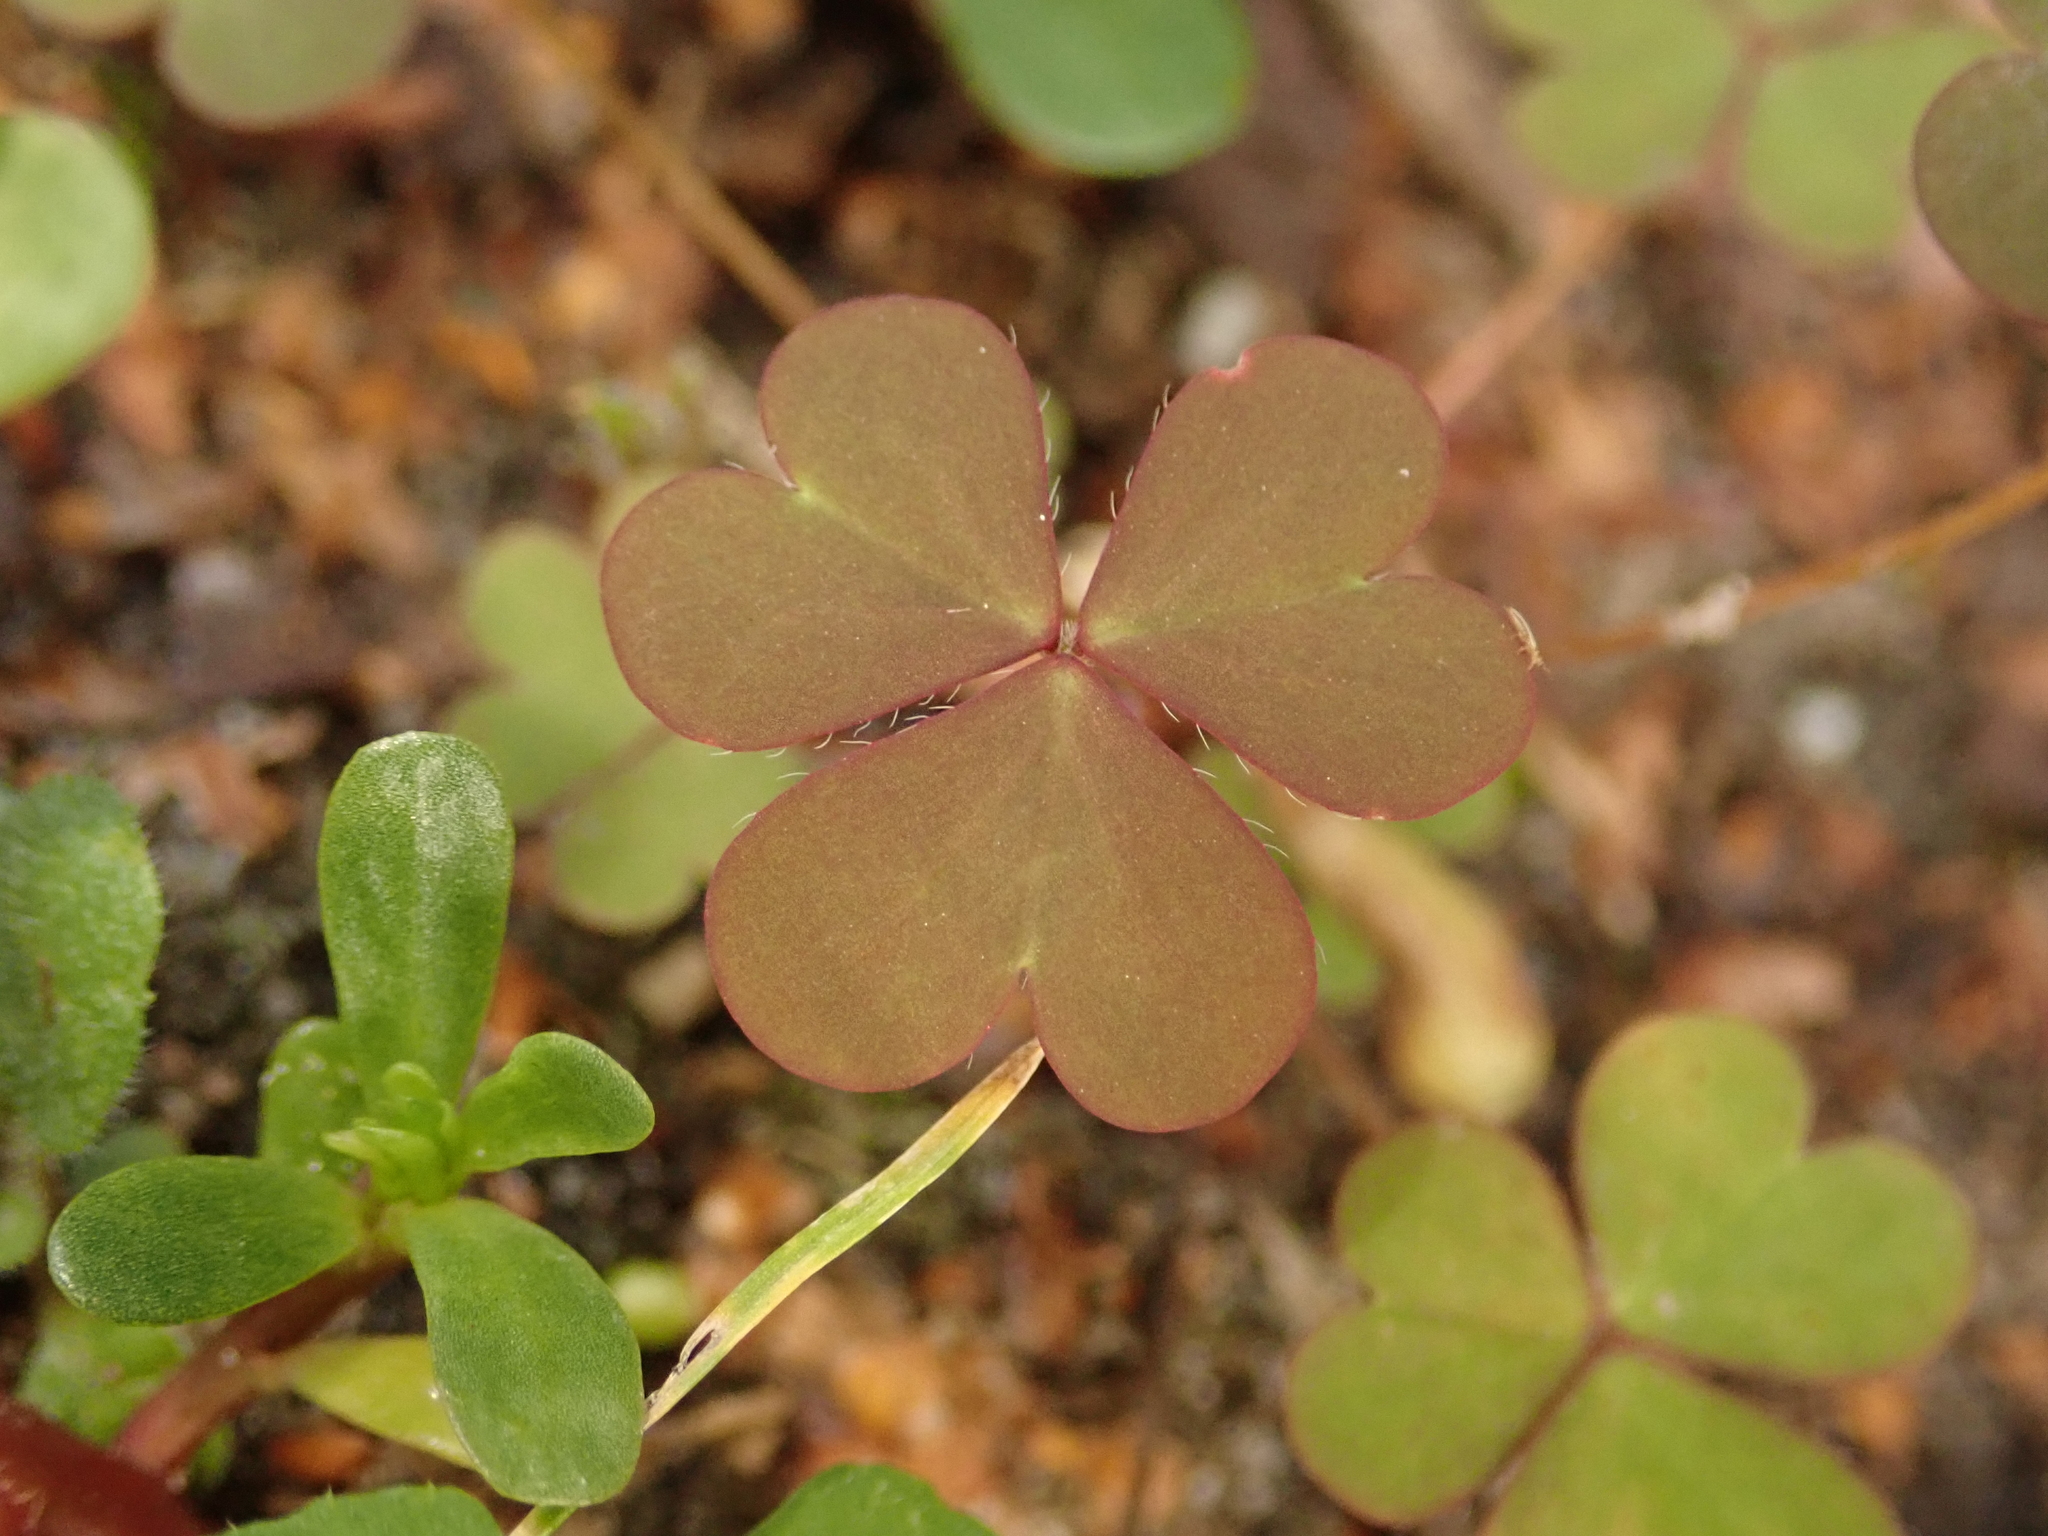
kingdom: Plantae
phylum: Tracheophyta
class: Magnoliopsida
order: Oxalidales
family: Oxalidaceae
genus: Oxalis
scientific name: Oxalis corniculata
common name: Procumbent yellow-sorrel
